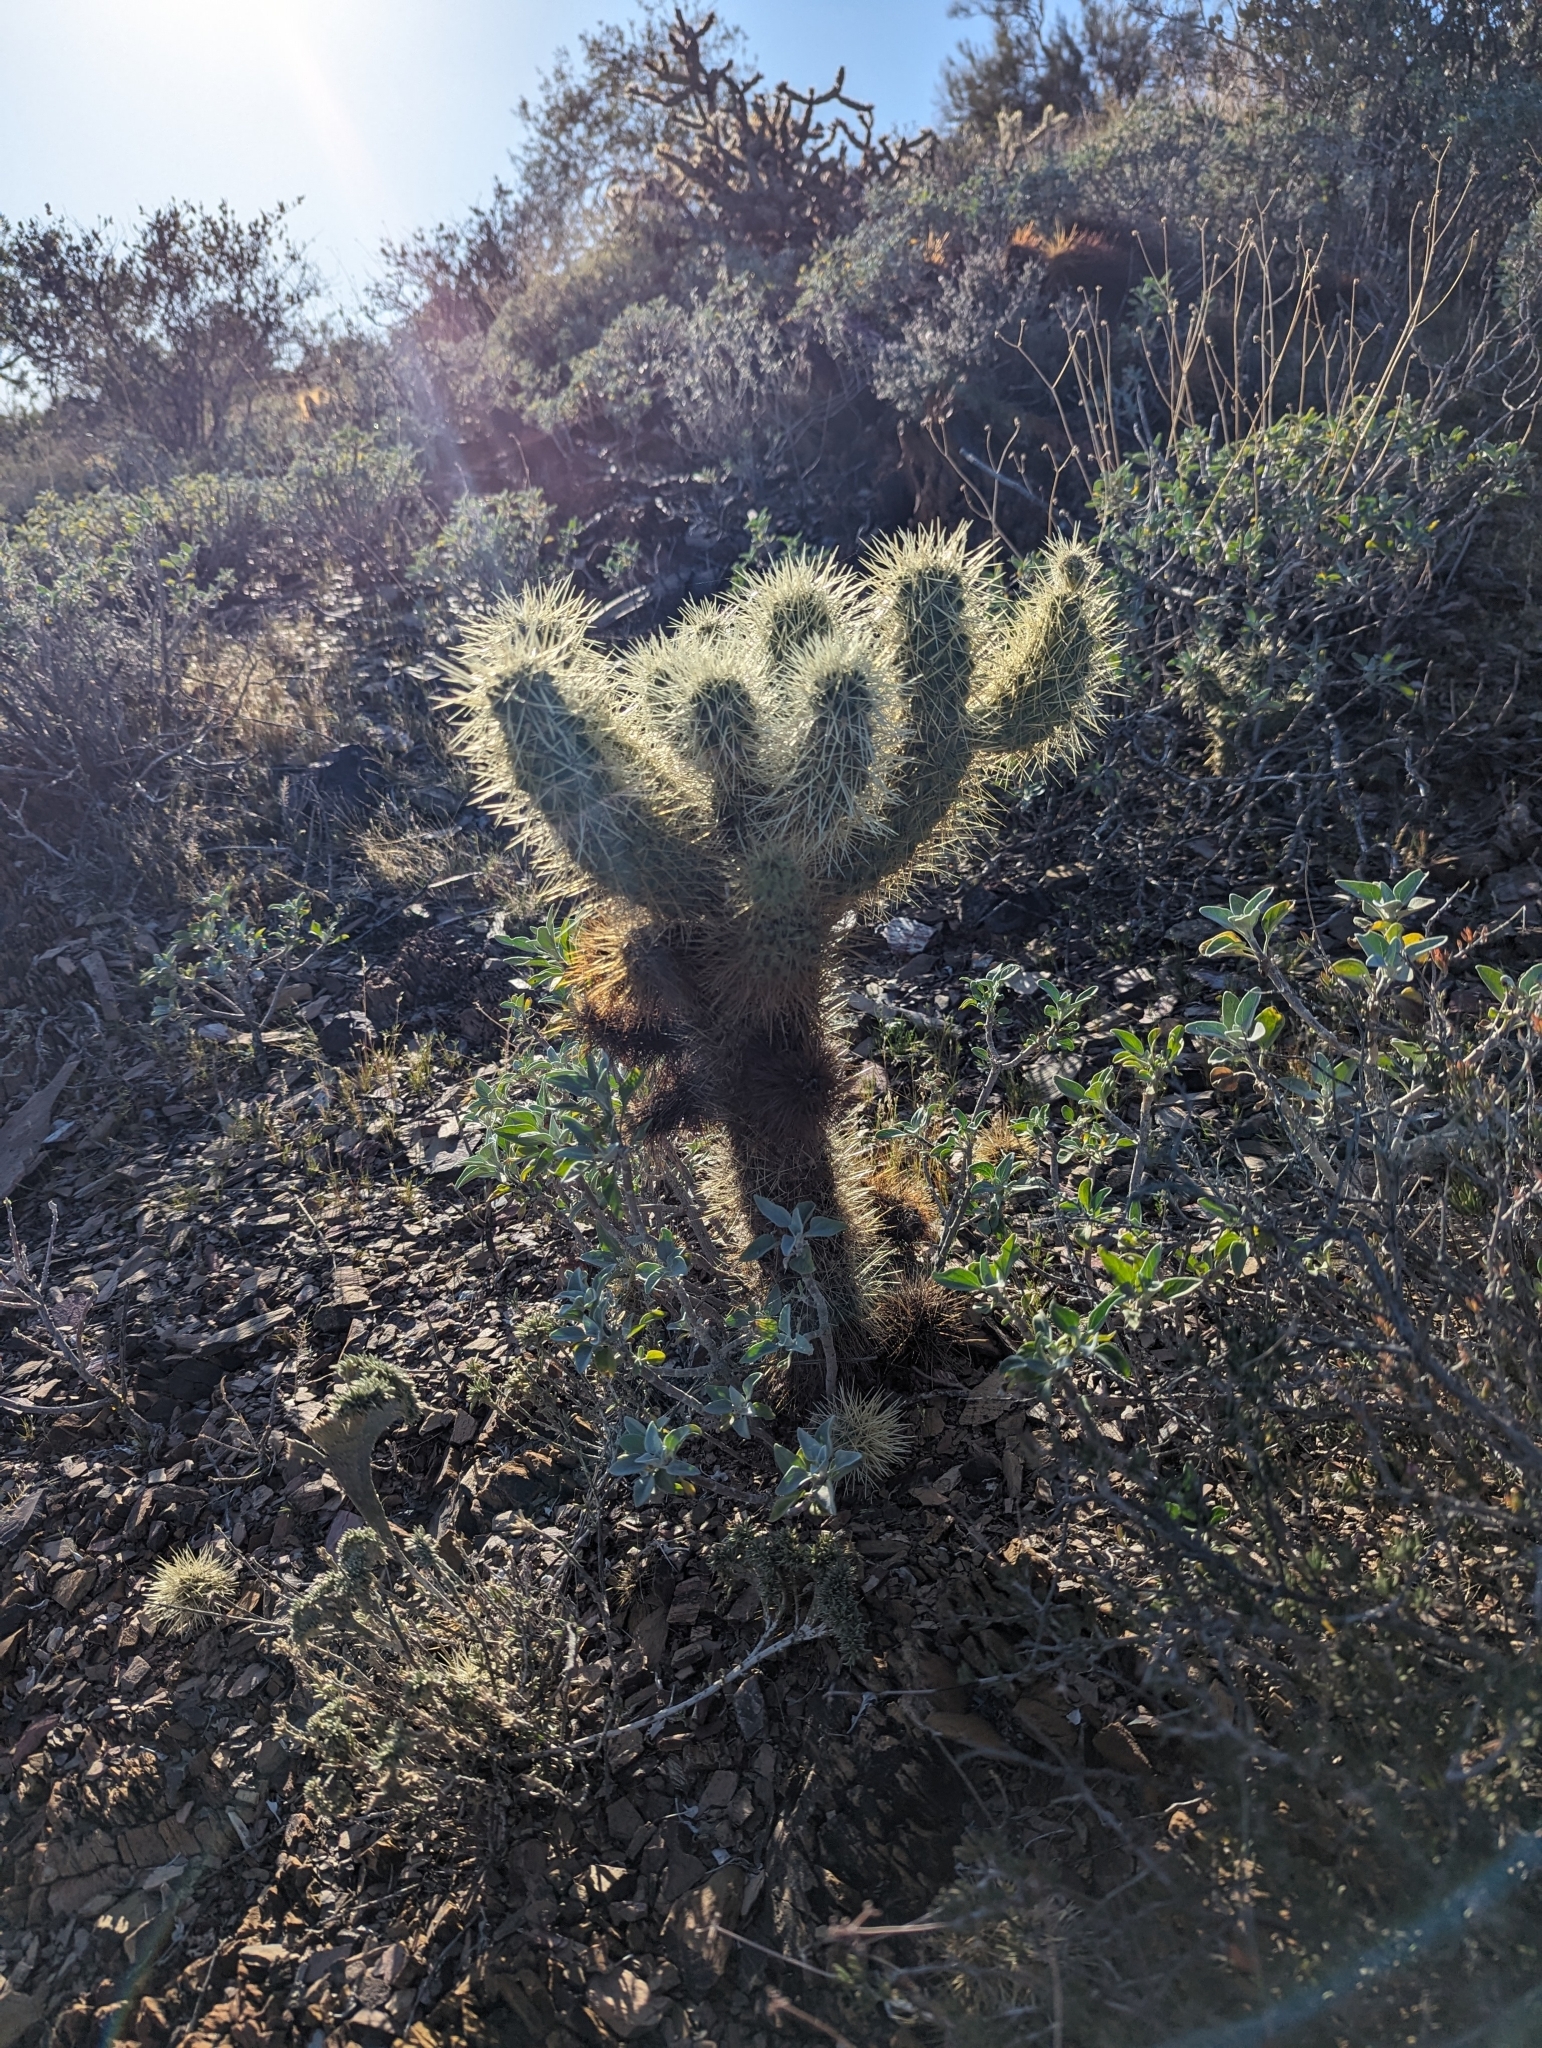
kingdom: Plantae
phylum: Tracheophyta
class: Magnoliopsida
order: Caryophyllales
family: Cactaceae
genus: Cylindropuntia
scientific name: Cylindropuntia fosbergii
